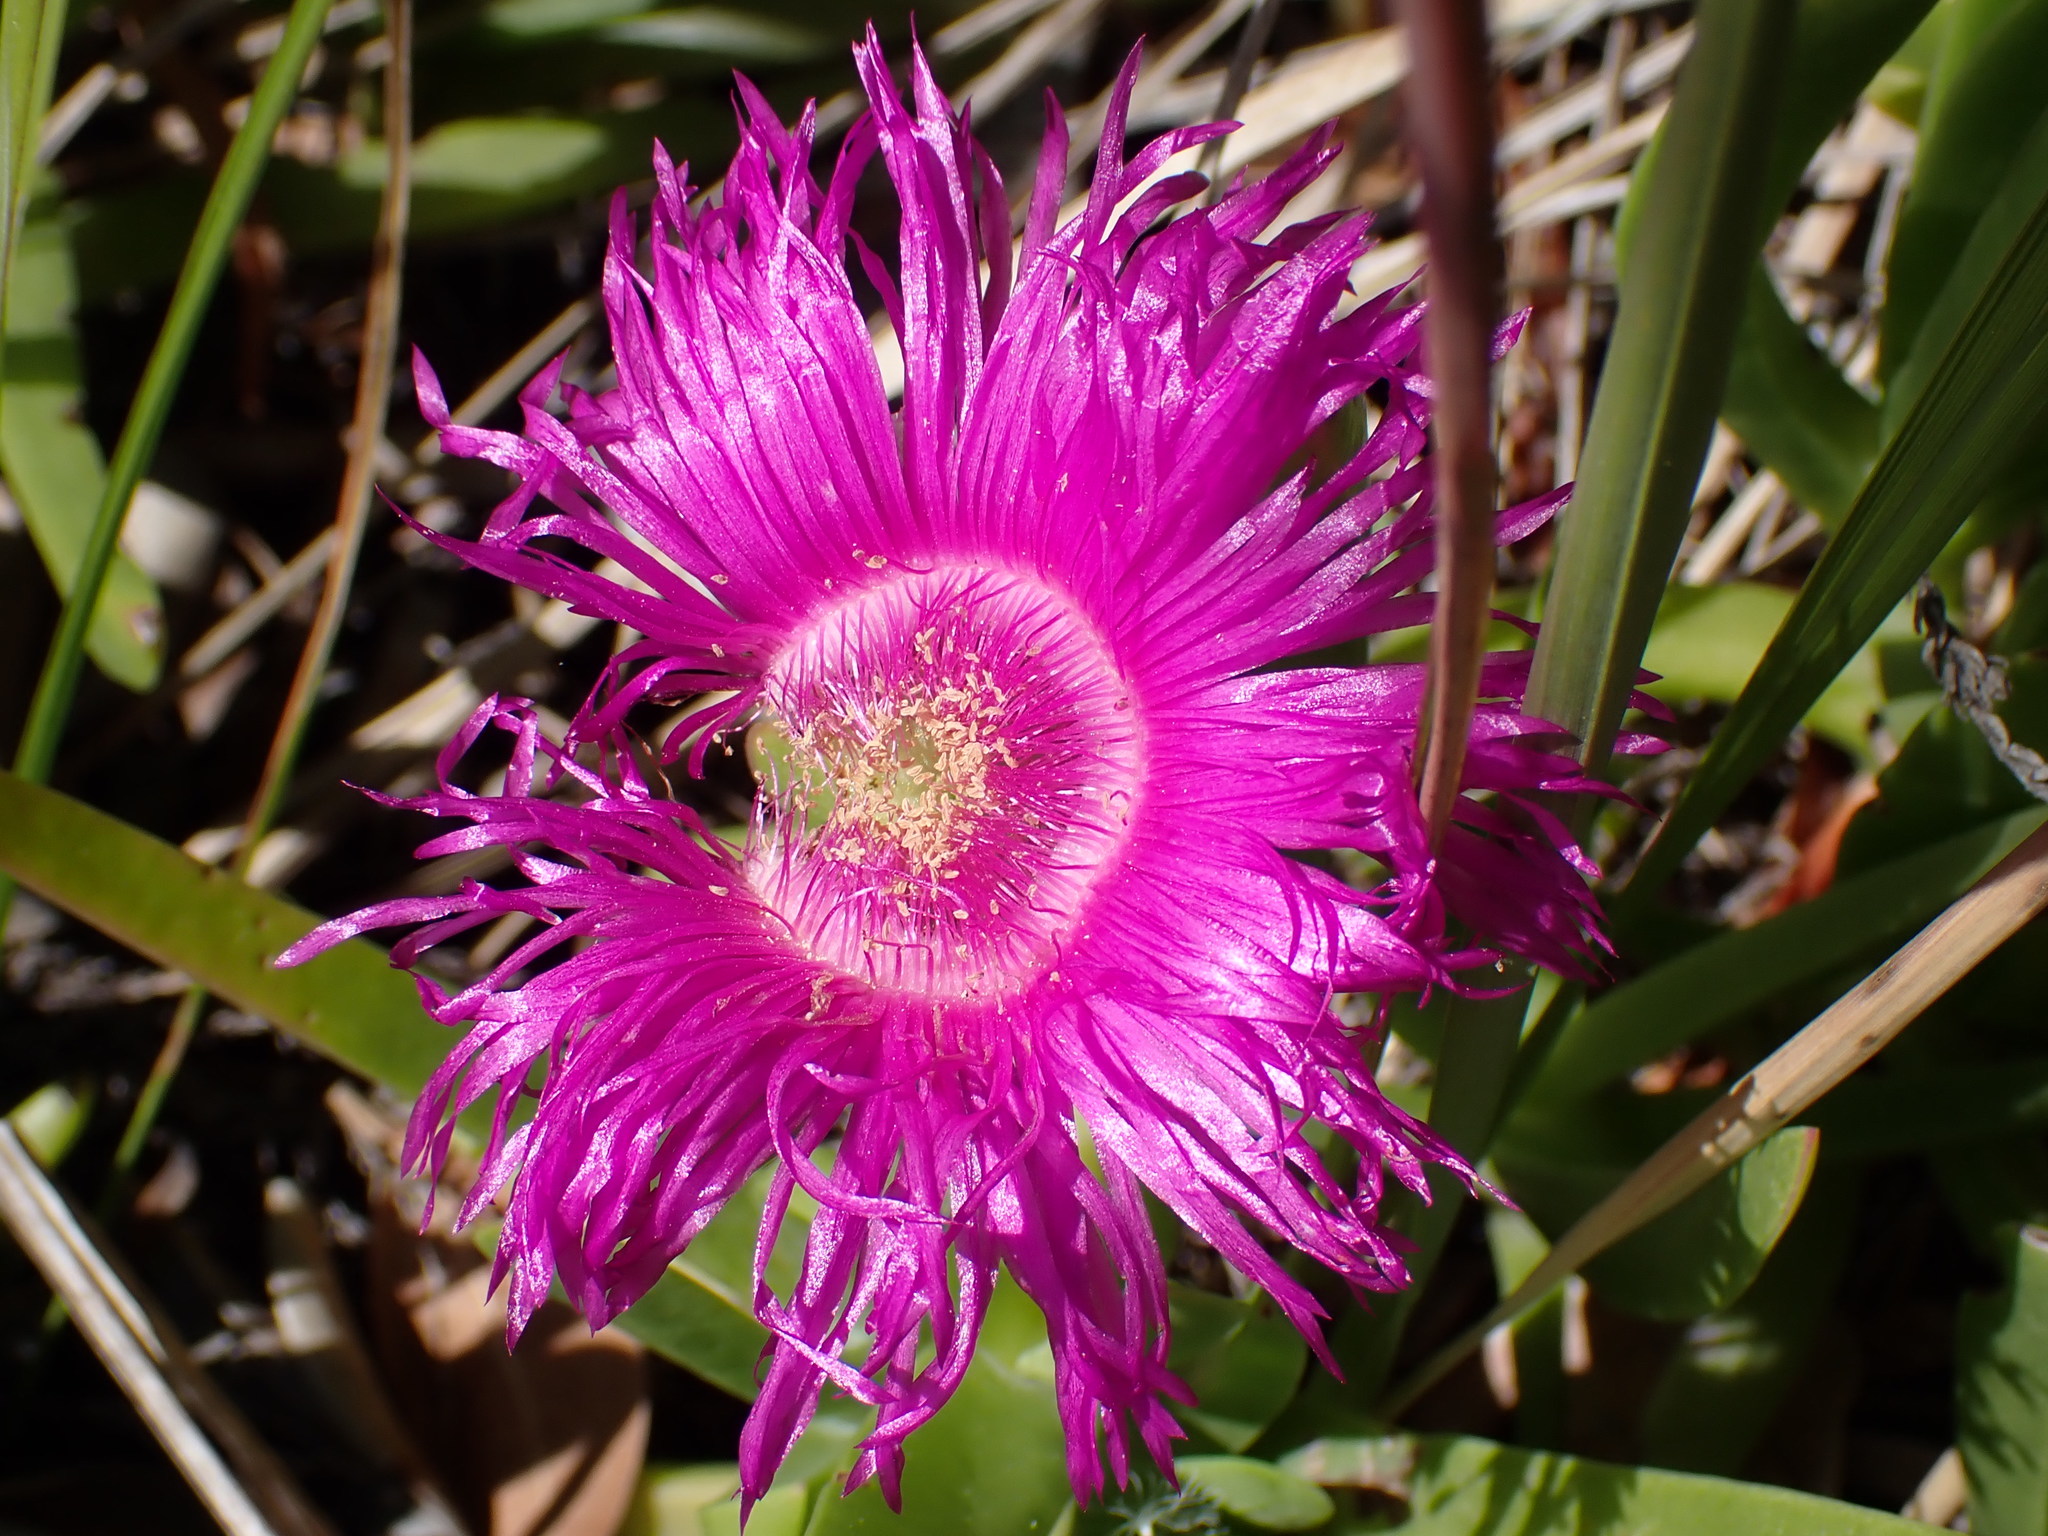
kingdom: Plantae
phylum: Tracheophyta
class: Magnoliopsida
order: Caryophyllales
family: Aizoaceae
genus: Carpobrotus
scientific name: Carpobrotus deliciosus
